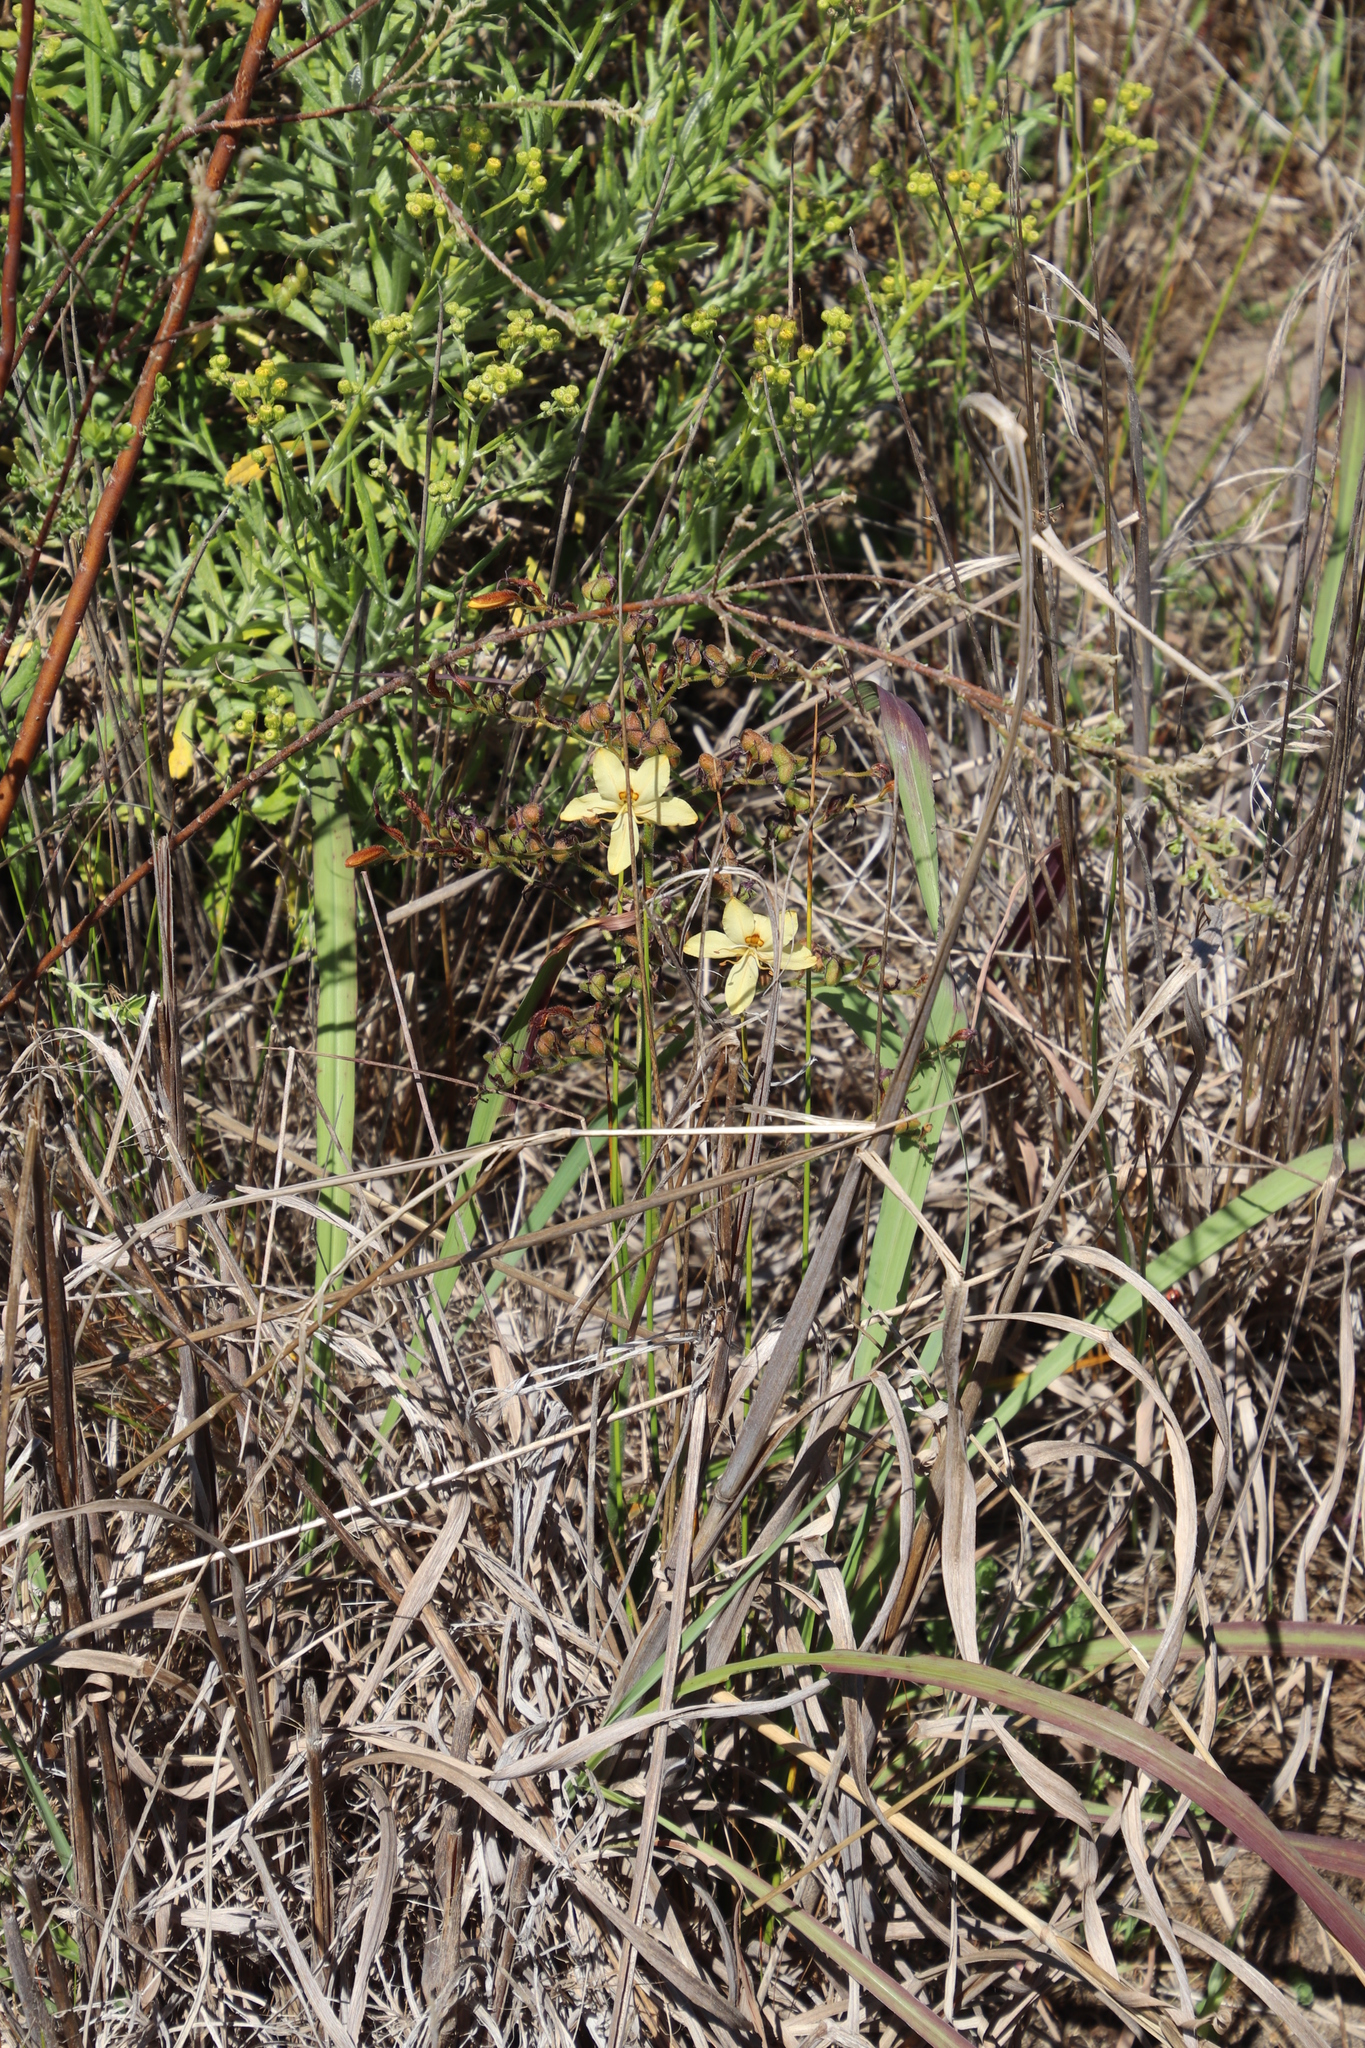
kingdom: Plantae
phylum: Tracheophyta
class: Liliopsida
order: Commelinales
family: Haemodoraceae
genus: Wachendorfia
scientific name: Wachendorfia paniculata
